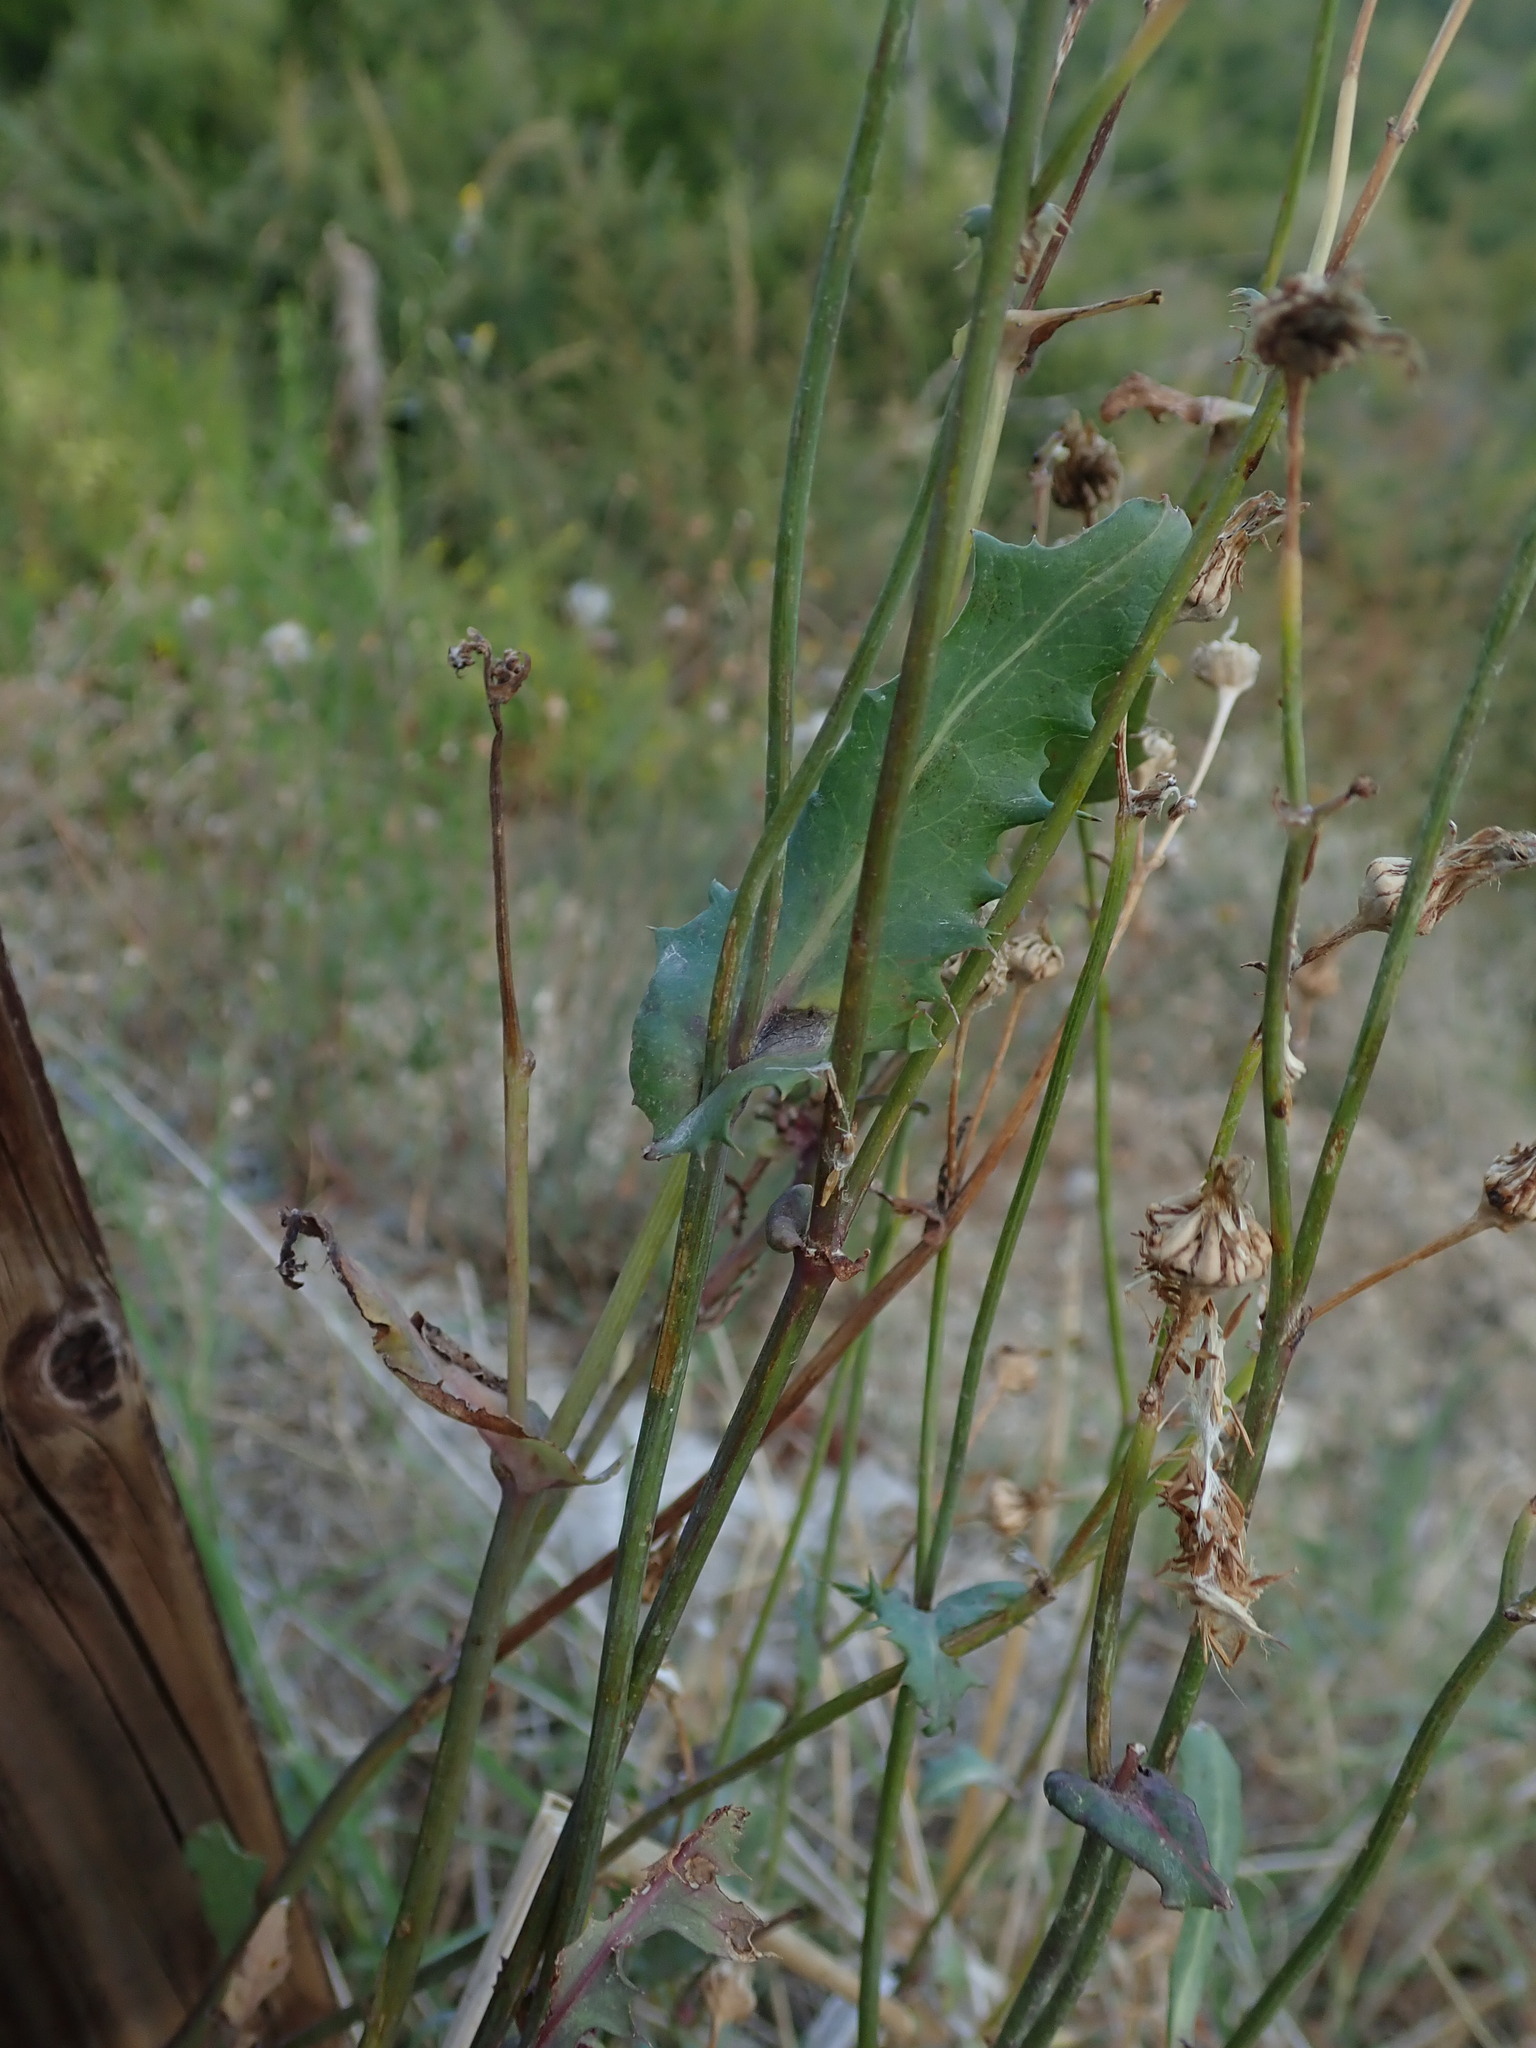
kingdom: Plantae
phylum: Tracheophyta
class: Magnoliopsida
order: Asterales
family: Asteraceae
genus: Sonchus
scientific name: Sonchus oleraceus
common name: Common sowthistle
